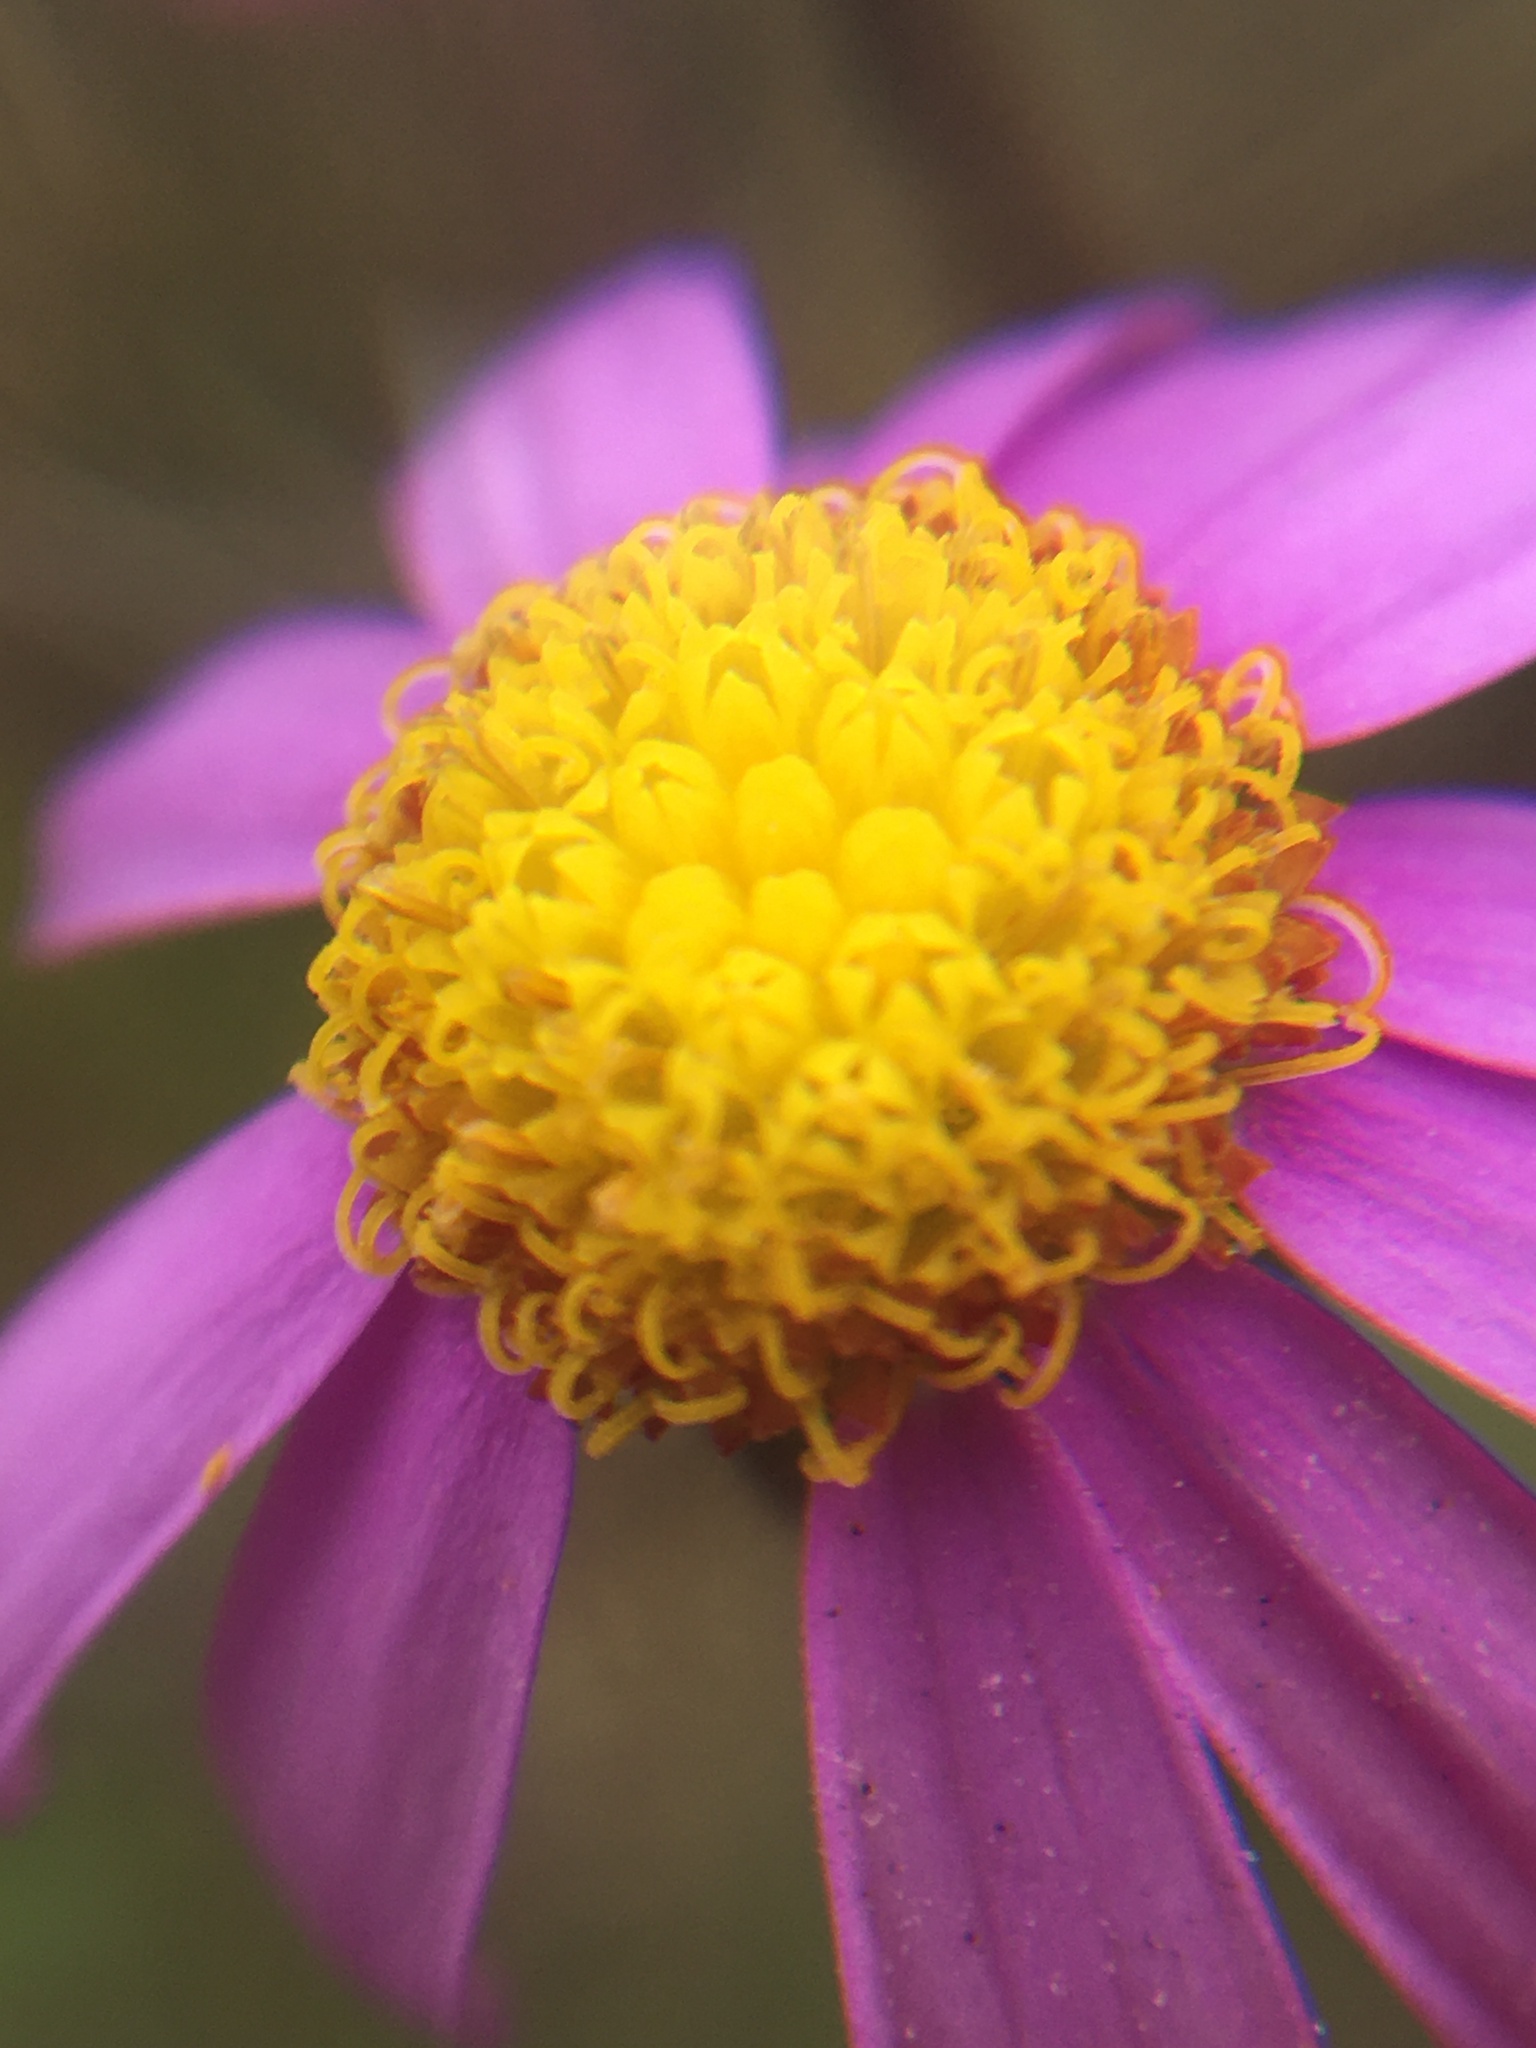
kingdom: Plantae
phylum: Tracheophyta
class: Magnoliopsida
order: Asterales
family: Asteraceae
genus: Senecio
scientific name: Senecio arenarius
